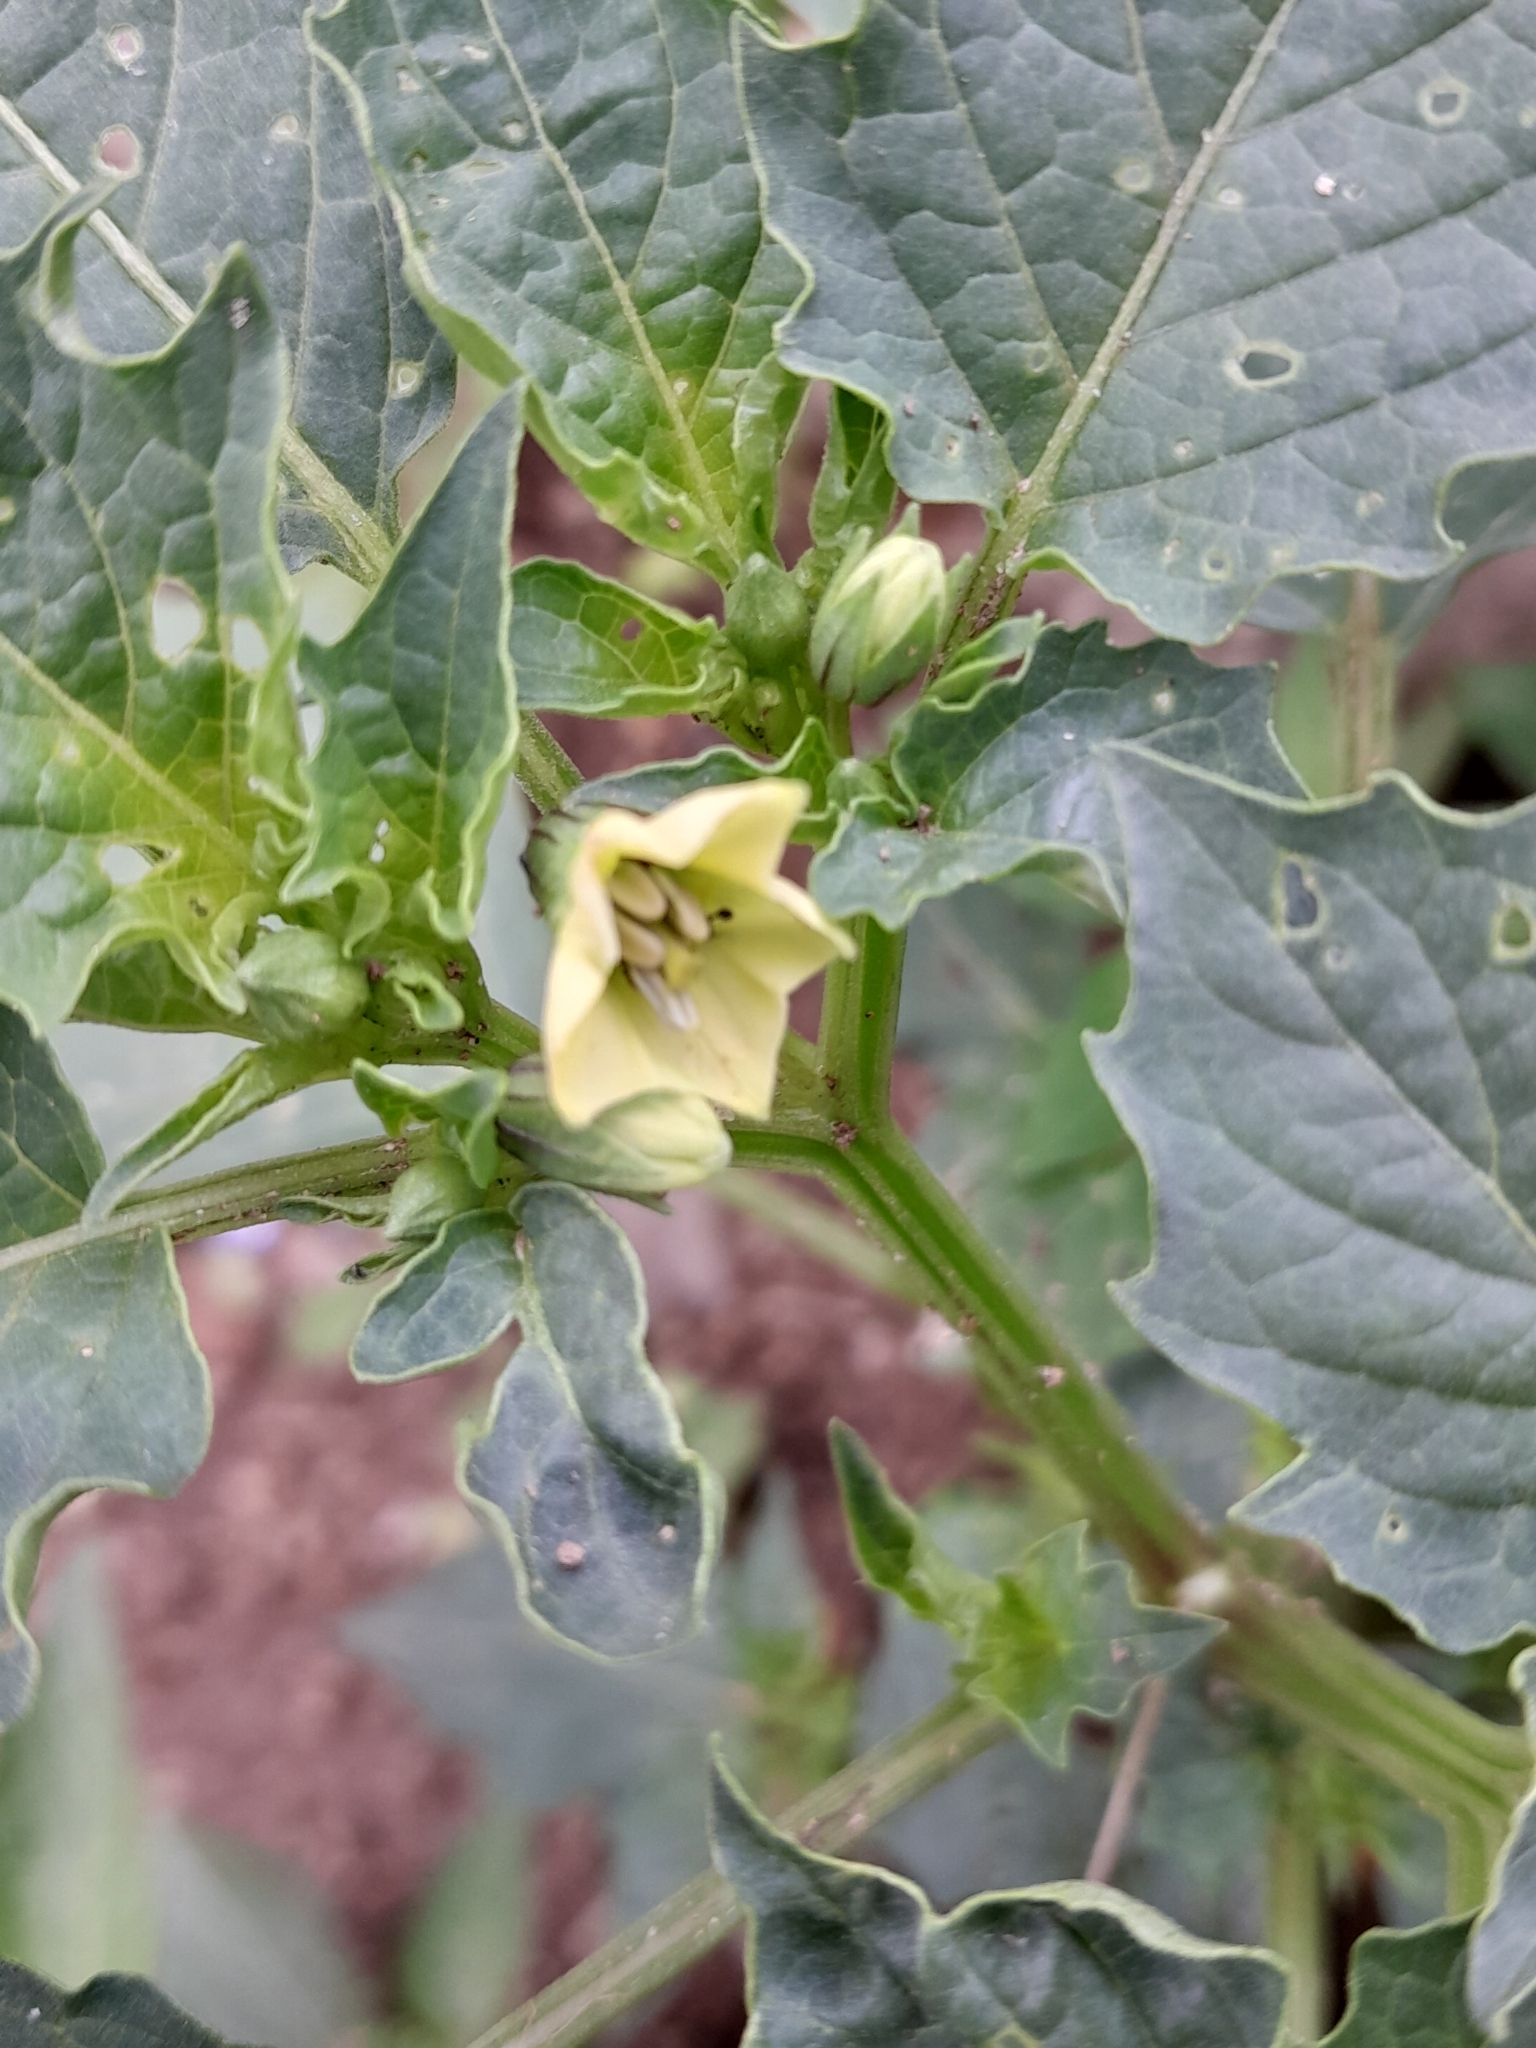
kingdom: Plantae
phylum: Tracheophyta
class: Magnoliopsida
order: Solanales
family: Solanaceae
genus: Physalis
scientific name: Physalis angulata
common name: Angular winter-cherry
